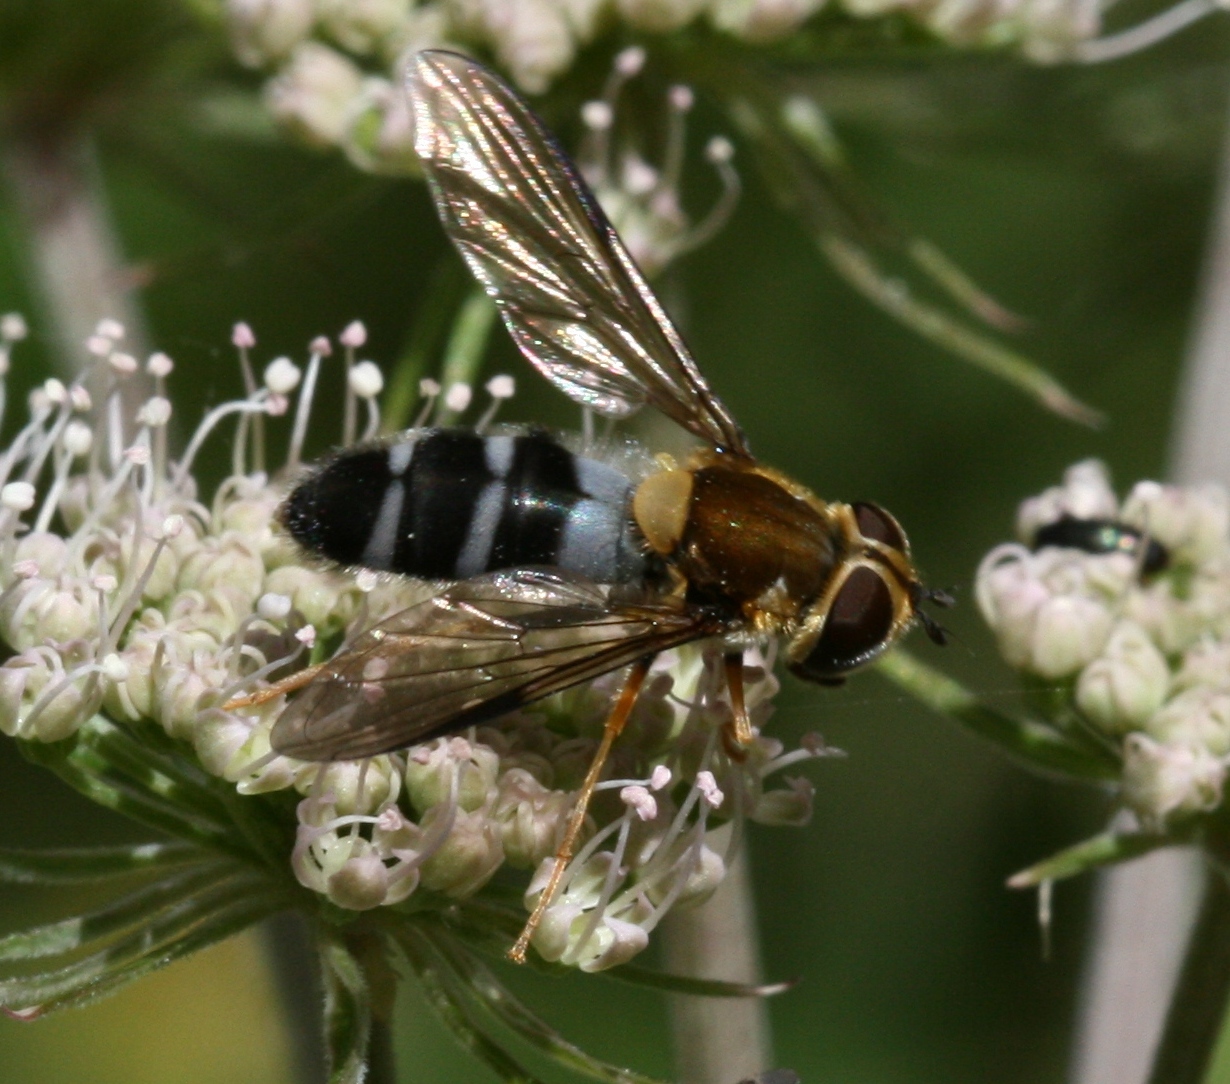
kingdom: Animalia
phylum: Arthropoda
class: Insecta
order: Diptera
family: Syrphidae
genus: Leucozona
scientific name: Leucozona glaucia
